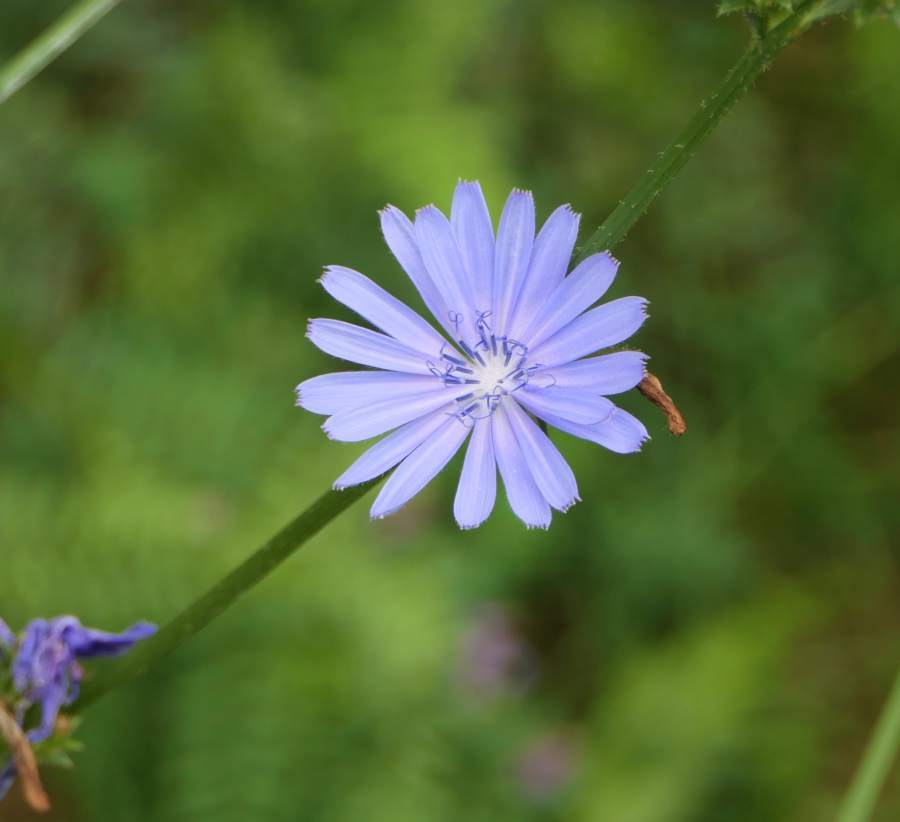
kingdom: Plantae
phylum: Tracheophyta
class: Magnoliopsida
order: Asterales
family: Asteraceae
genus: Cichorium
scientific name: Cichorium intybus
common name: Chicory
